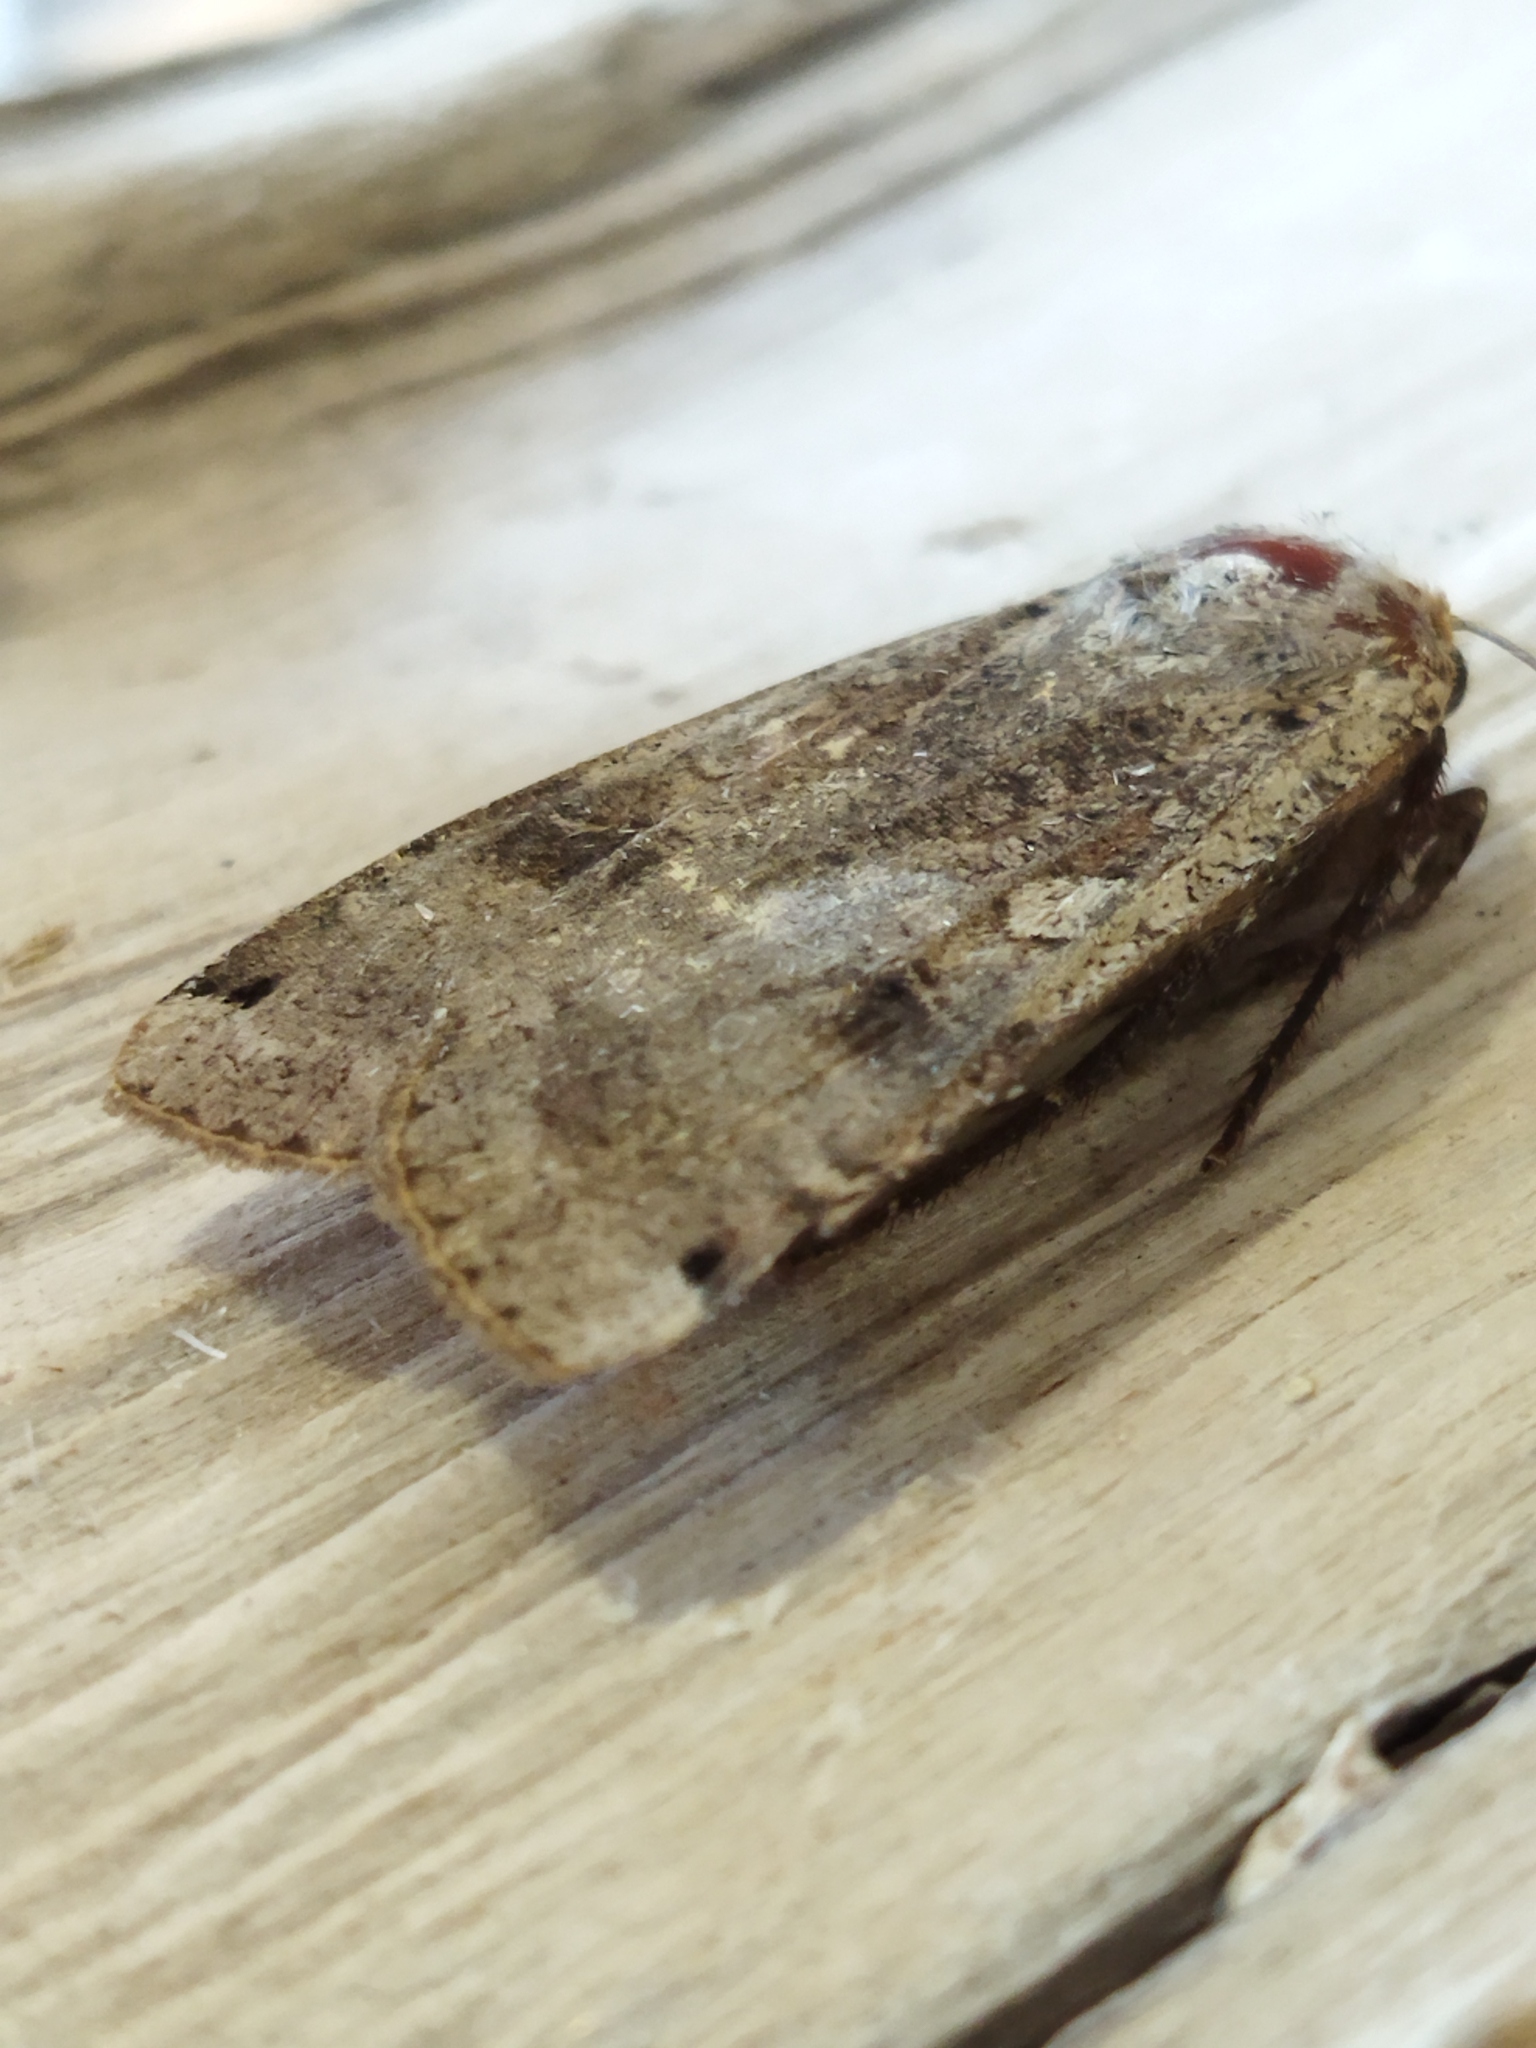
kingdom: Animalia
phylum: Arthropoda
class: Insecta
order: Lepidoptera
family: Noctuidae
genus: Noctua
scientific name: Noctua pronuba
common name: Large yellow underwing
